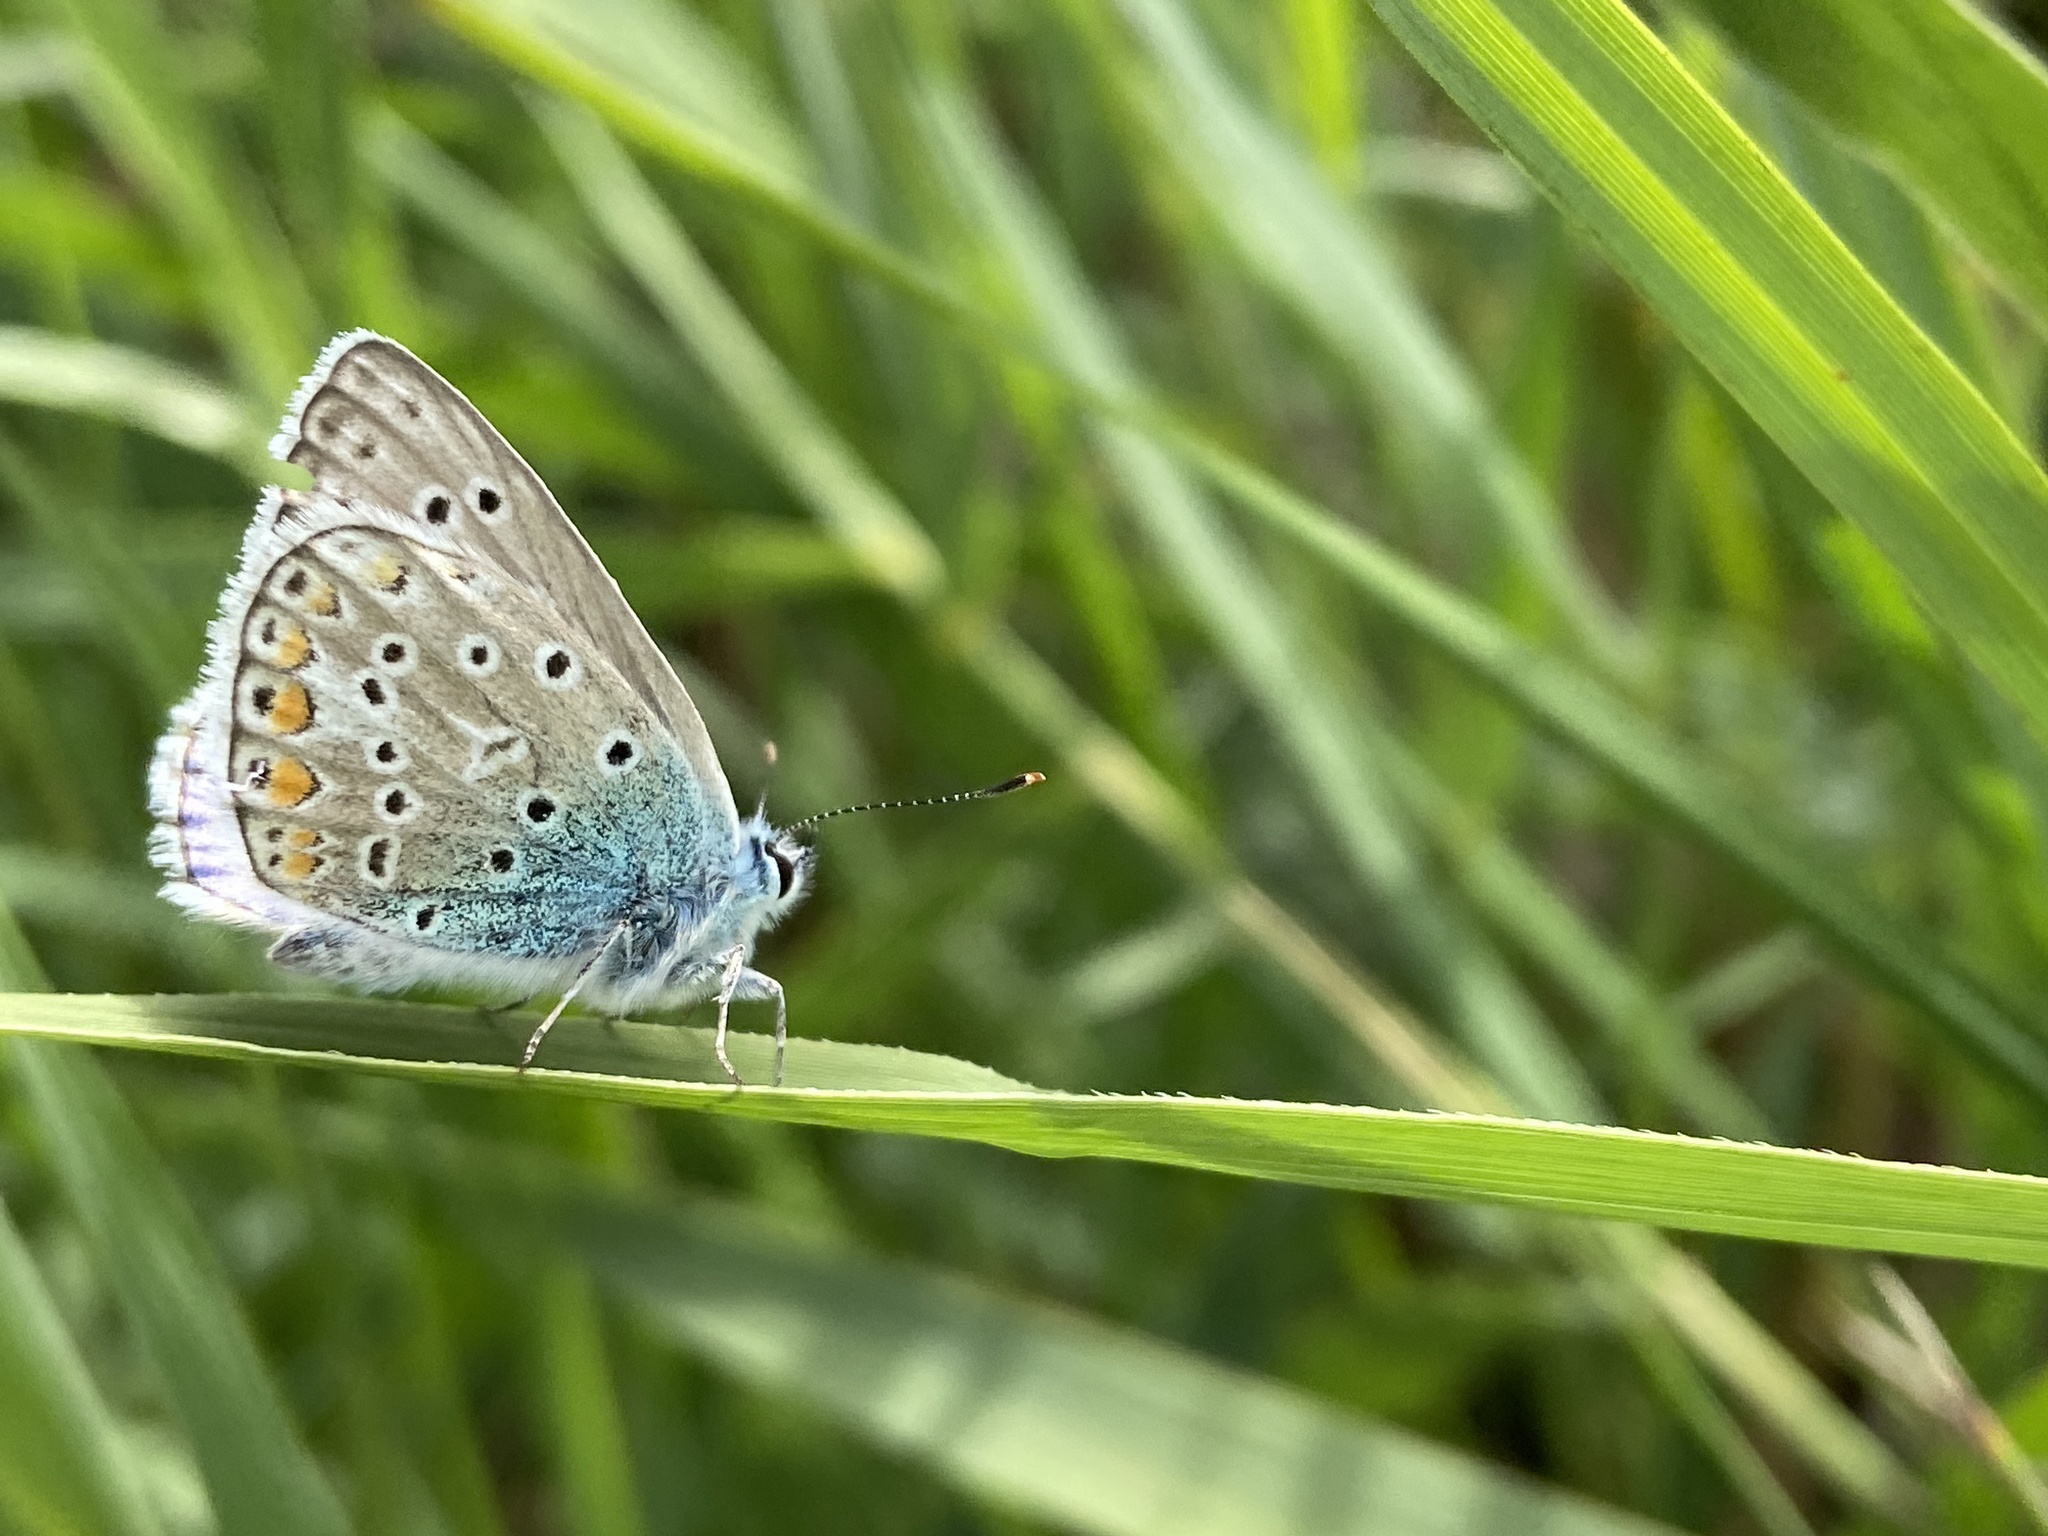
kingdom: Animalia
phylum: Arthropoda
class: Insecta
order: Lepidoptera
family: Lycaenidae
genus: Polyommatus
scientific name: Polyommatus icarus
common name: Common blue
